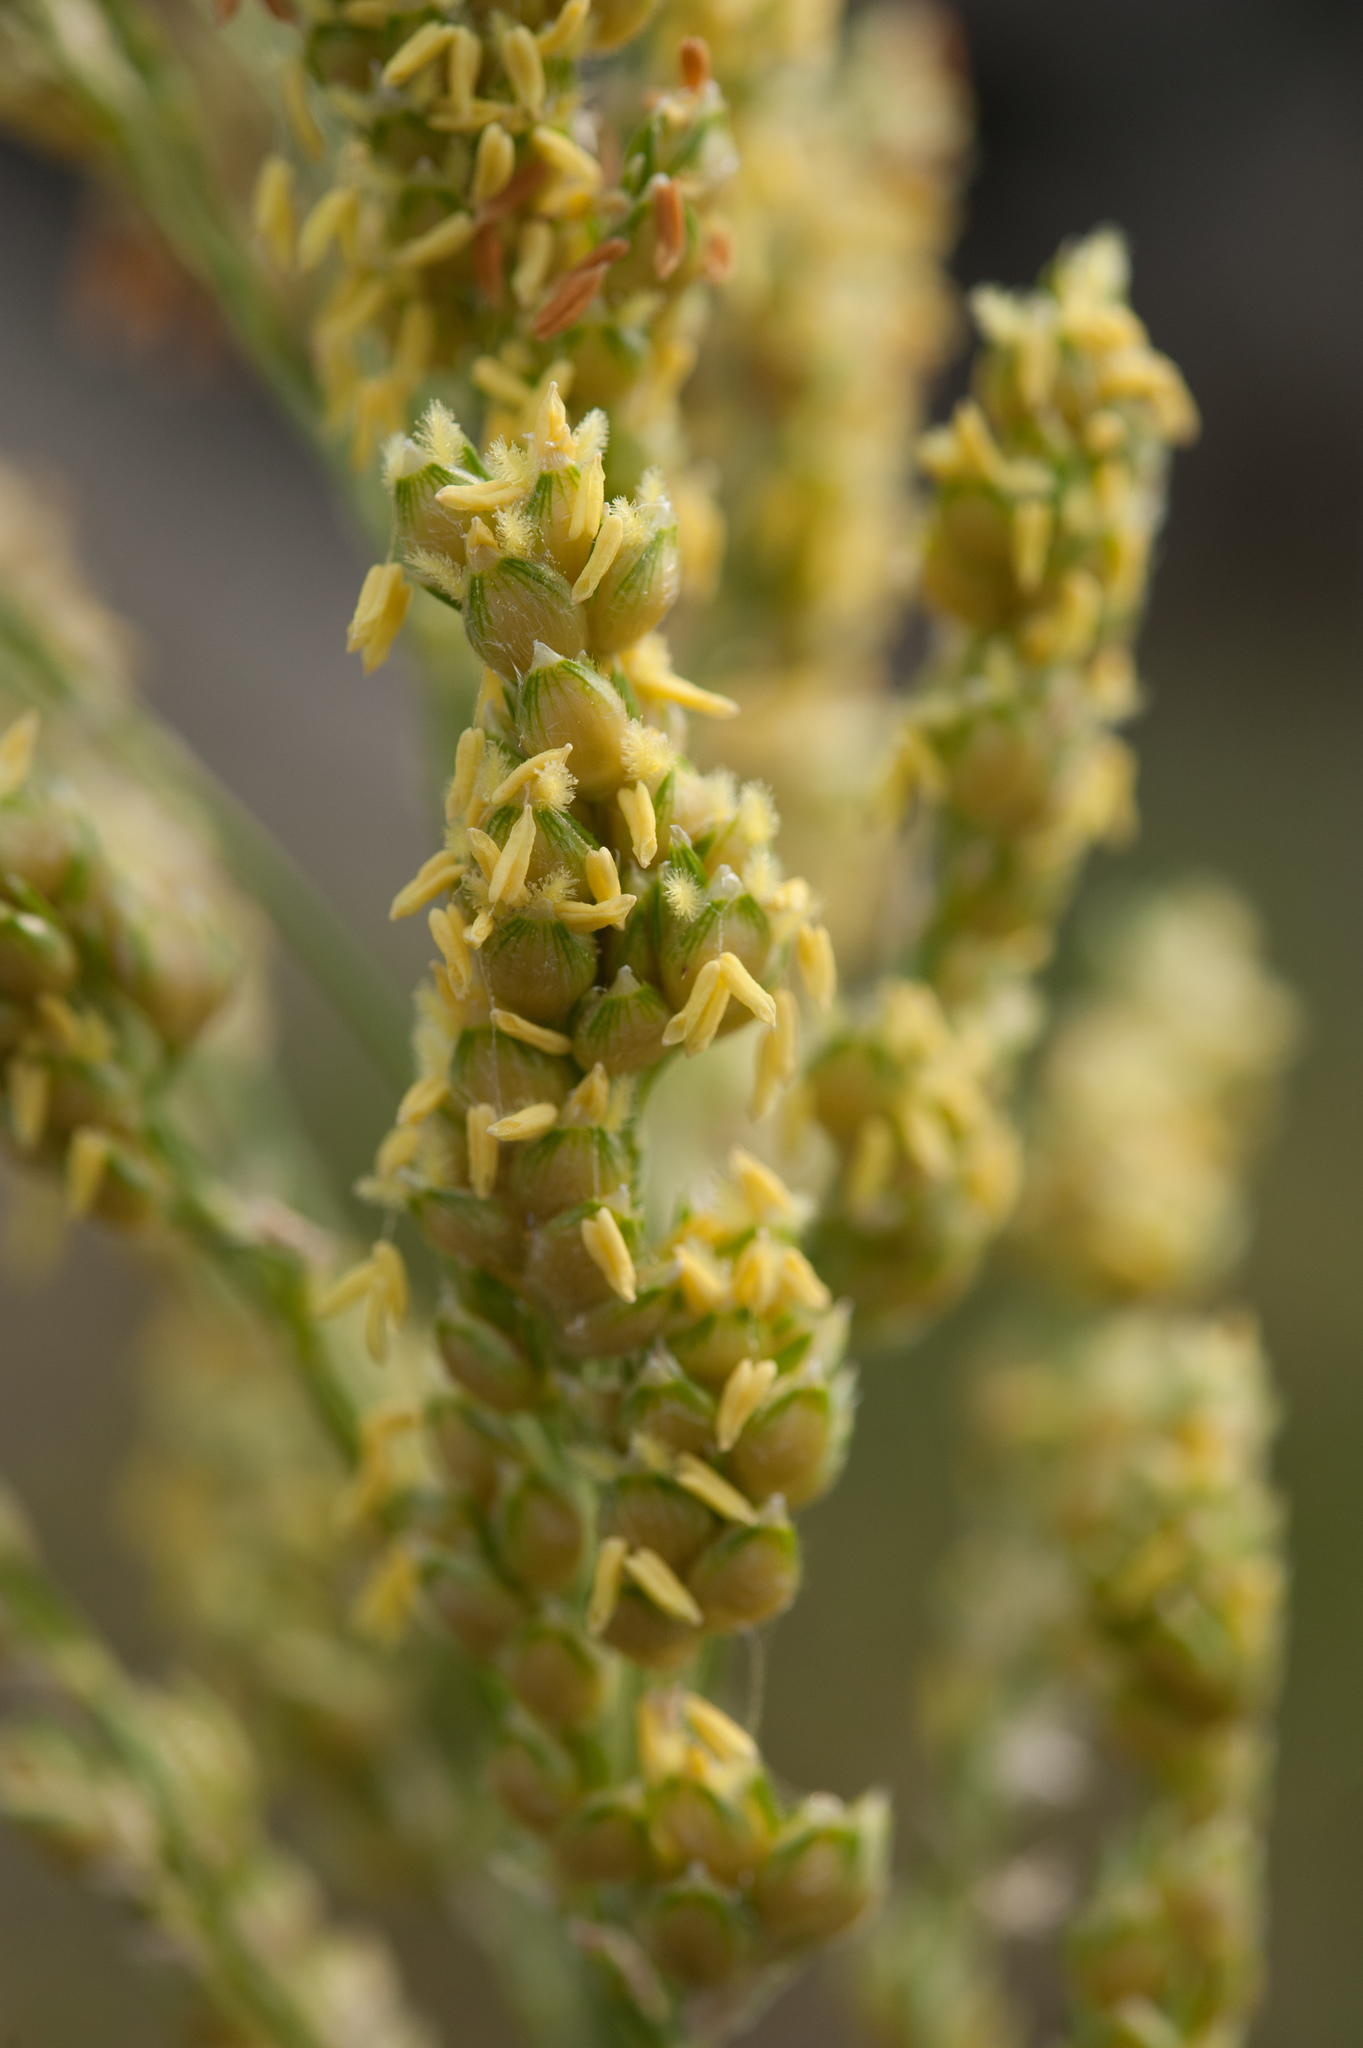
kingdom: Plantae
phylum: Tracheophyta
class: Liliopsida
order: Poales
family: Poaceae
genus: Sorghum
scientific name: Sorghum bicolor
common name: Sorghum
